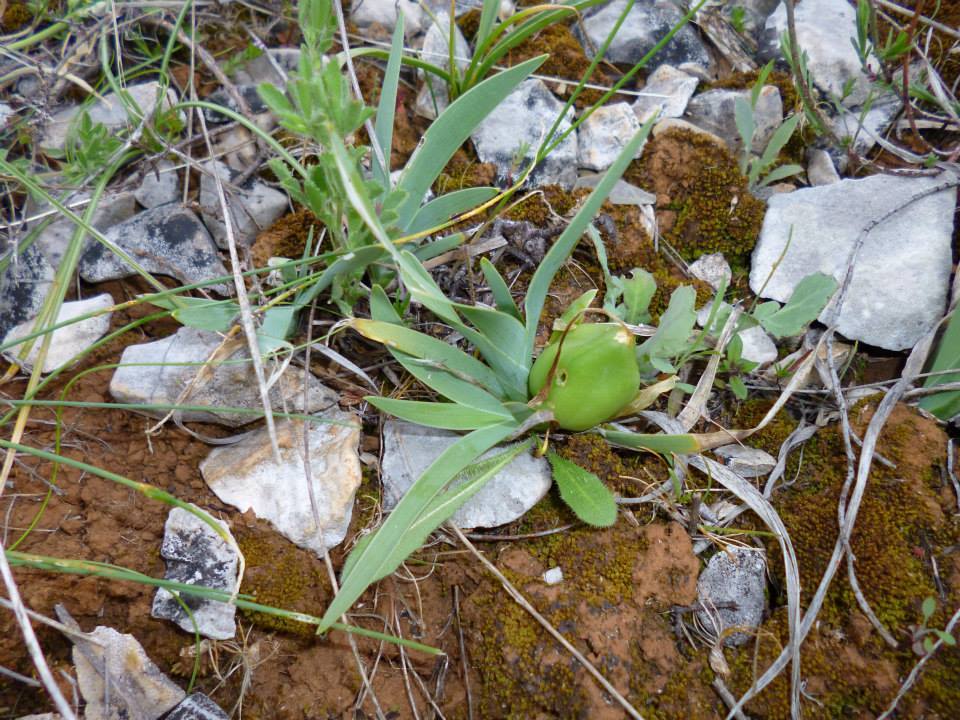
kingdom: Plantae
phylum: Tracheophyta
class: Liliopsida
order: Asparagales
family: Iridaceae
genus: Iris
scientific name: Iris adriatica
